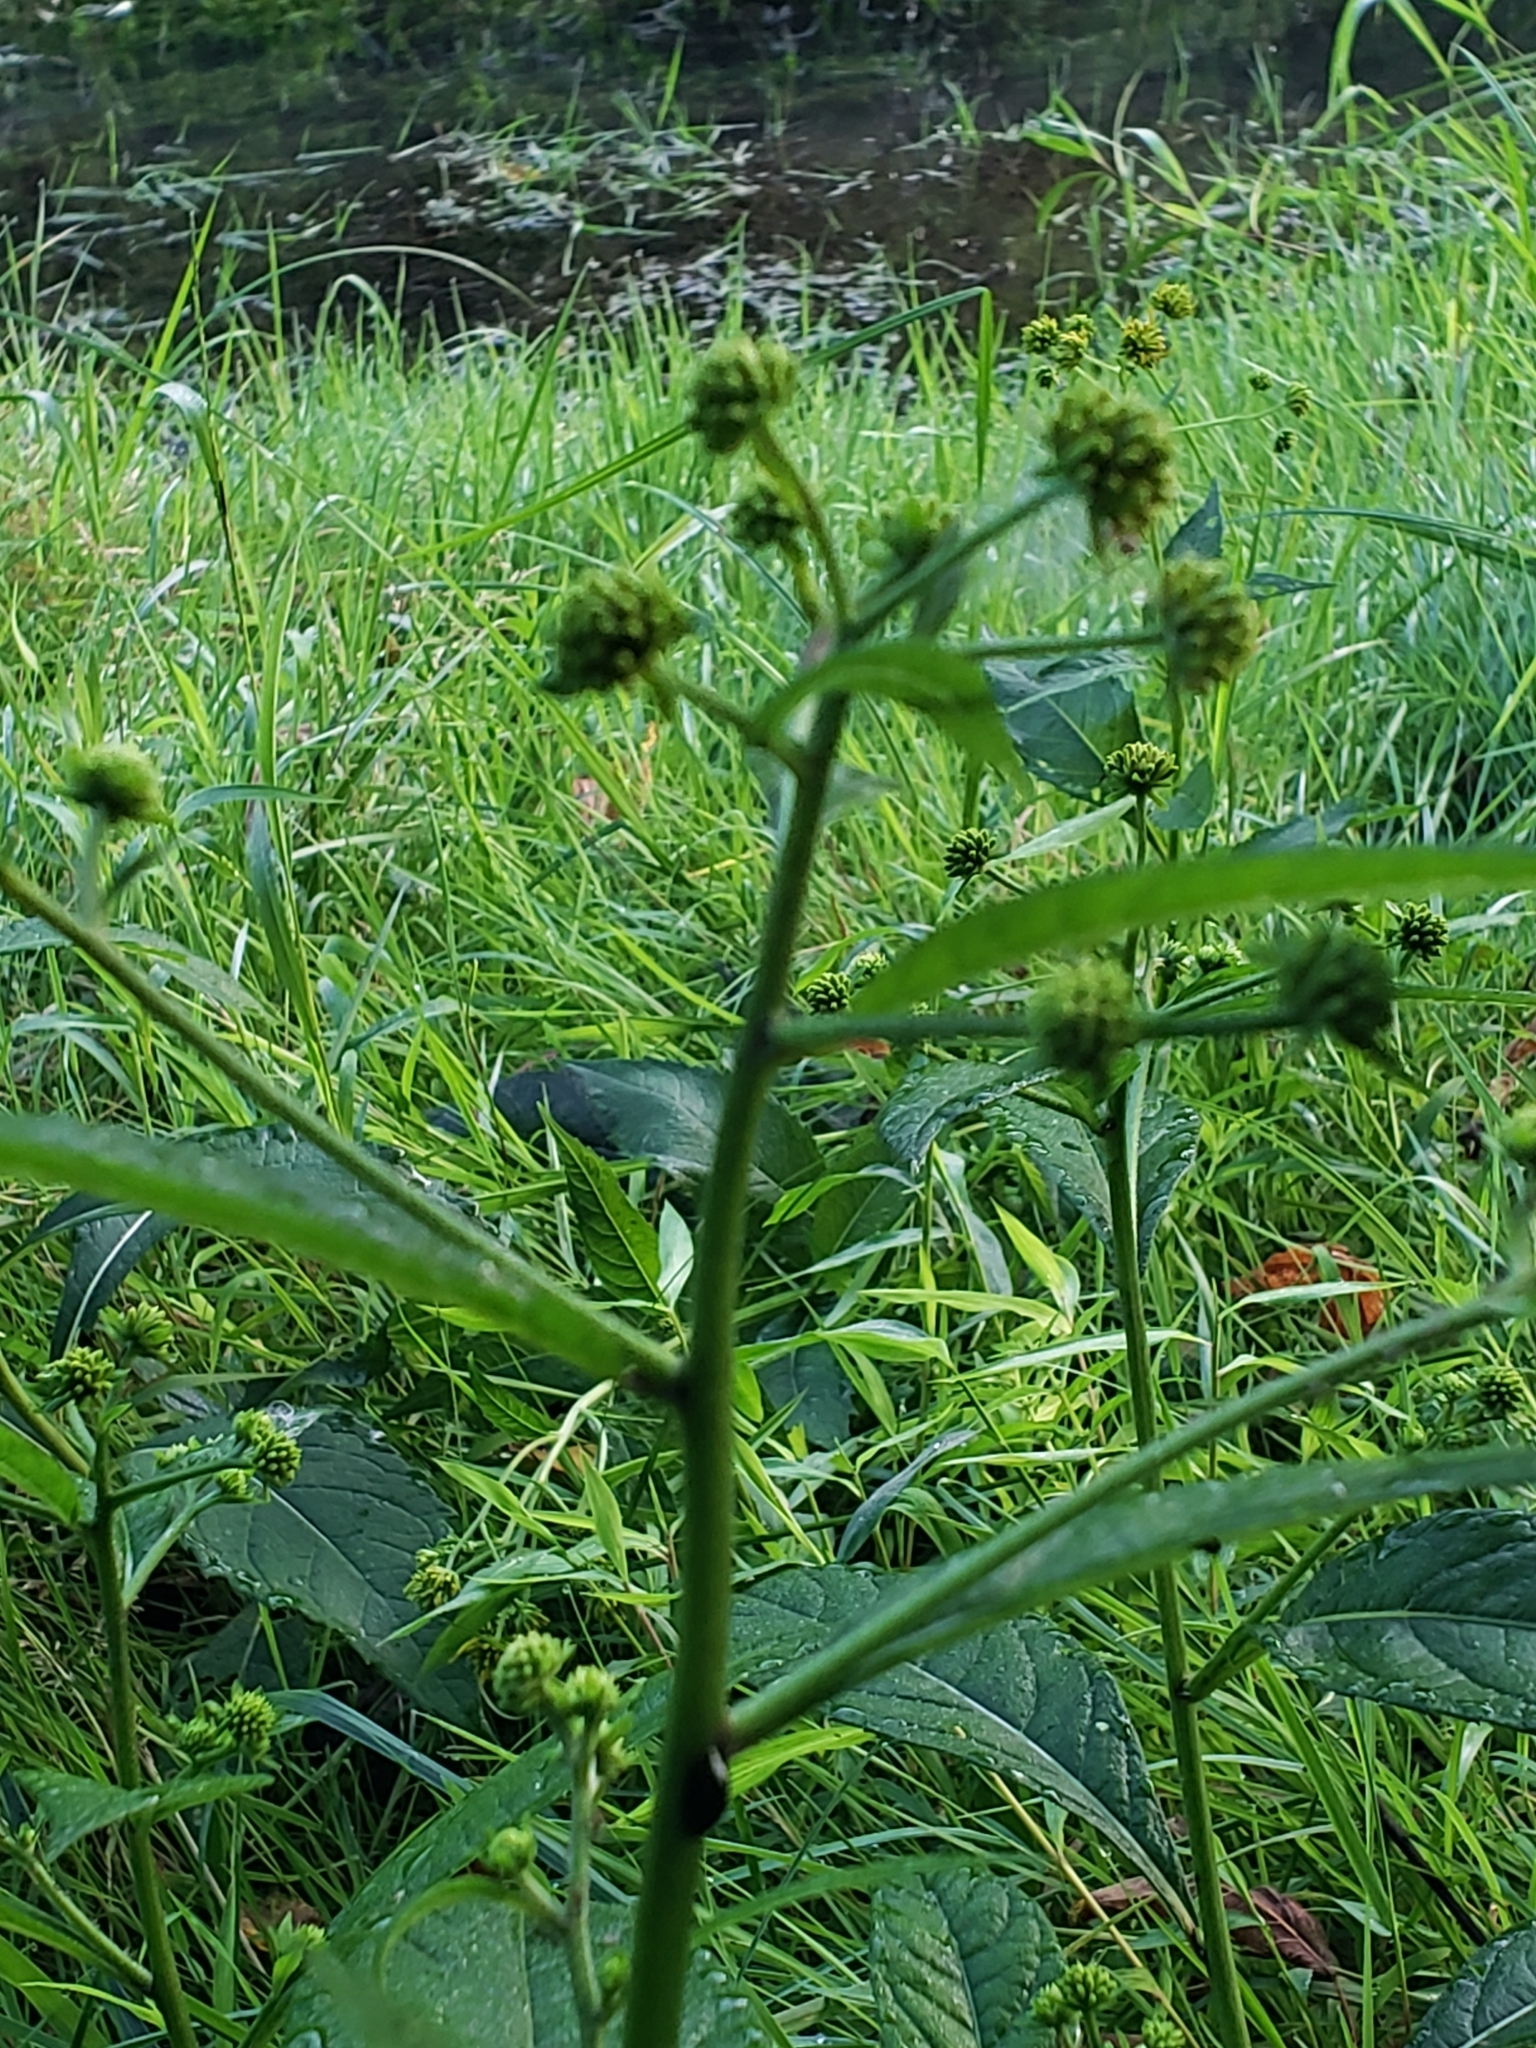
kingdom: Plantae
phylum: Tracheophyta
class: Magnoliopsida
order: Asterales
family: Asteraceae
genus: Verbesina
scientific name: Verbesina alternifolia
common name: Wingstem
